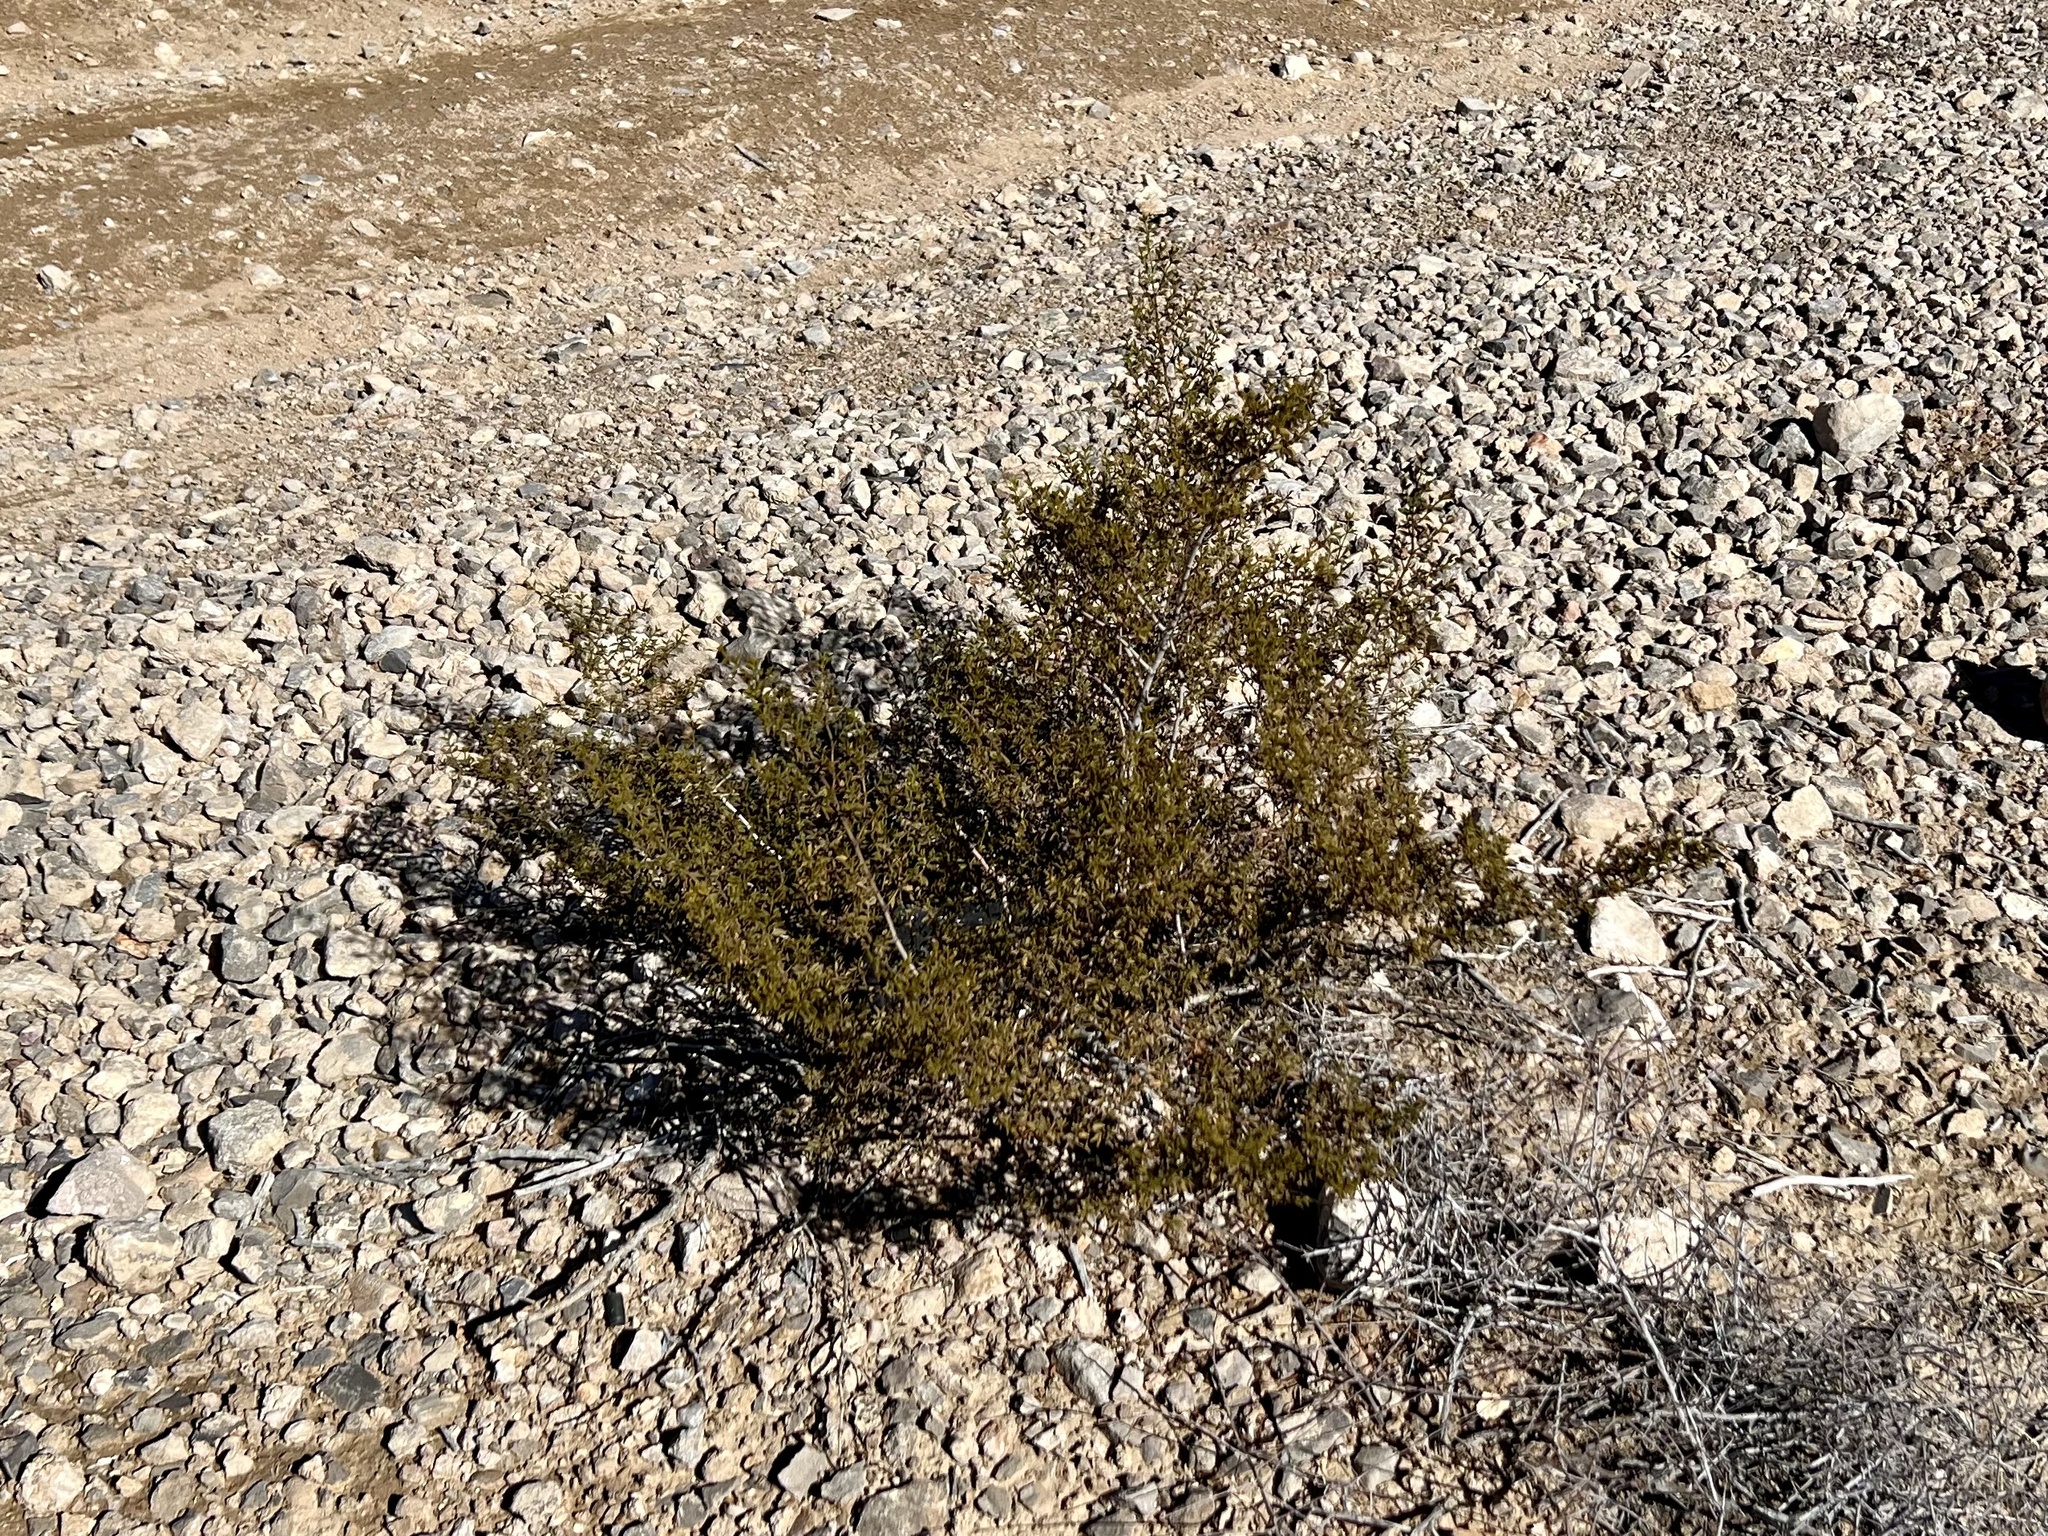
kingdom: Plantae
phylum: Tracheophyta
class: Magnoliopsida
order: Zygophyllales
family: Zygophyllaceae
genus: Larrea
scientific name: Larrea tridentata
